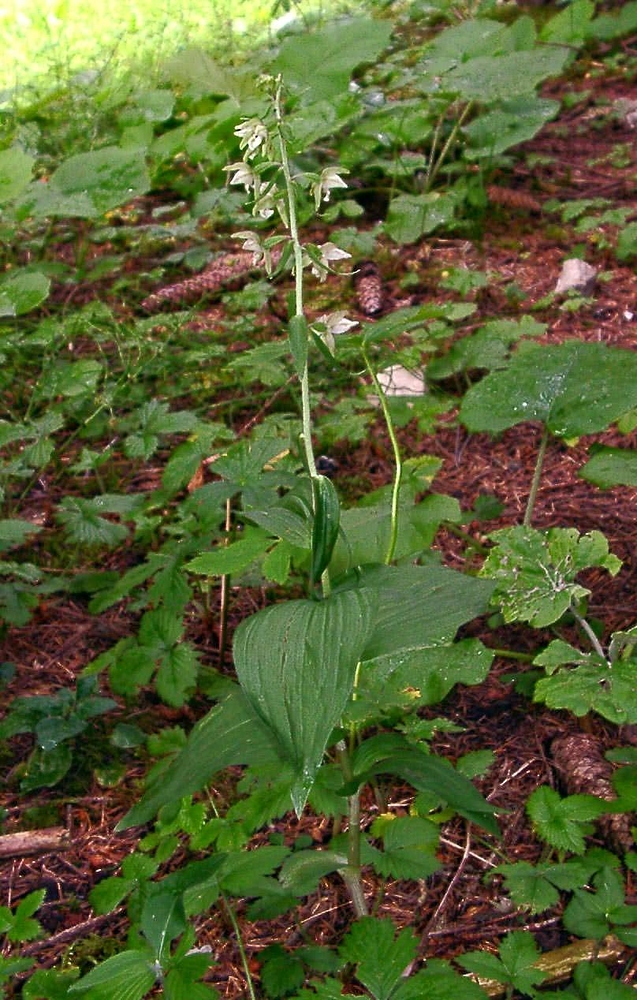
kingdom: Plantae
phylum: Tracheophyta
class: Liliopsida
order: Asparagales
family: Orchidaceae
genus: Epipactis
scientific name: Epipactis helleborine
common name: Broad-leaved helleborine
